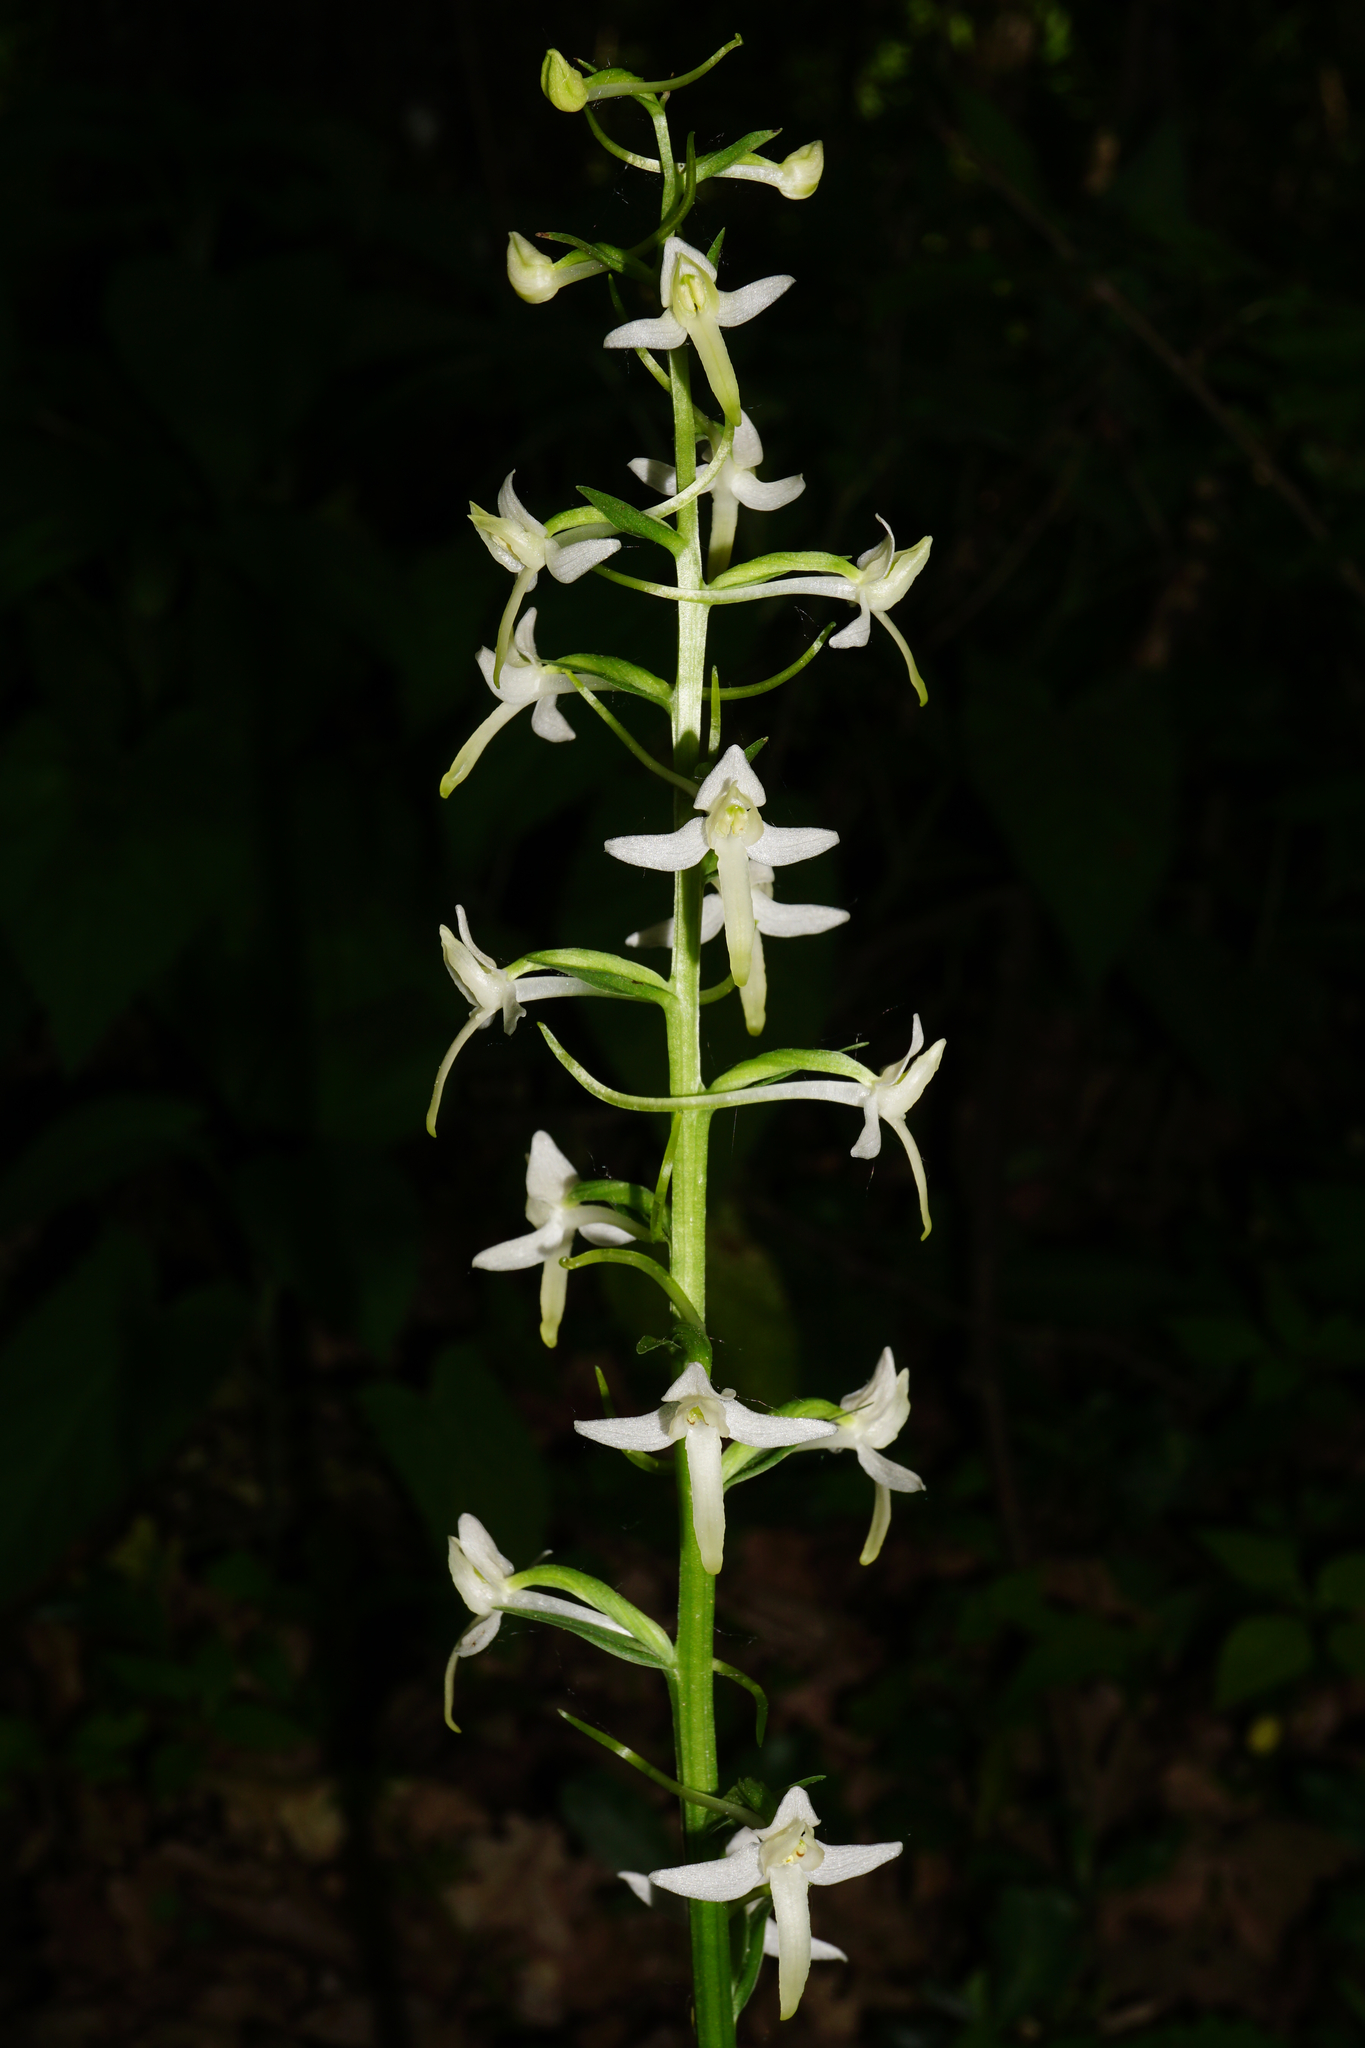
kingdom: Plantae
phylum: Tracheophyta
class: Liliopsida
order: Asparagales
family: Orchidaceae
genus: Platanthera
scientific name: Platanthera bifolia
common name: Lesser butterfly-orchid
